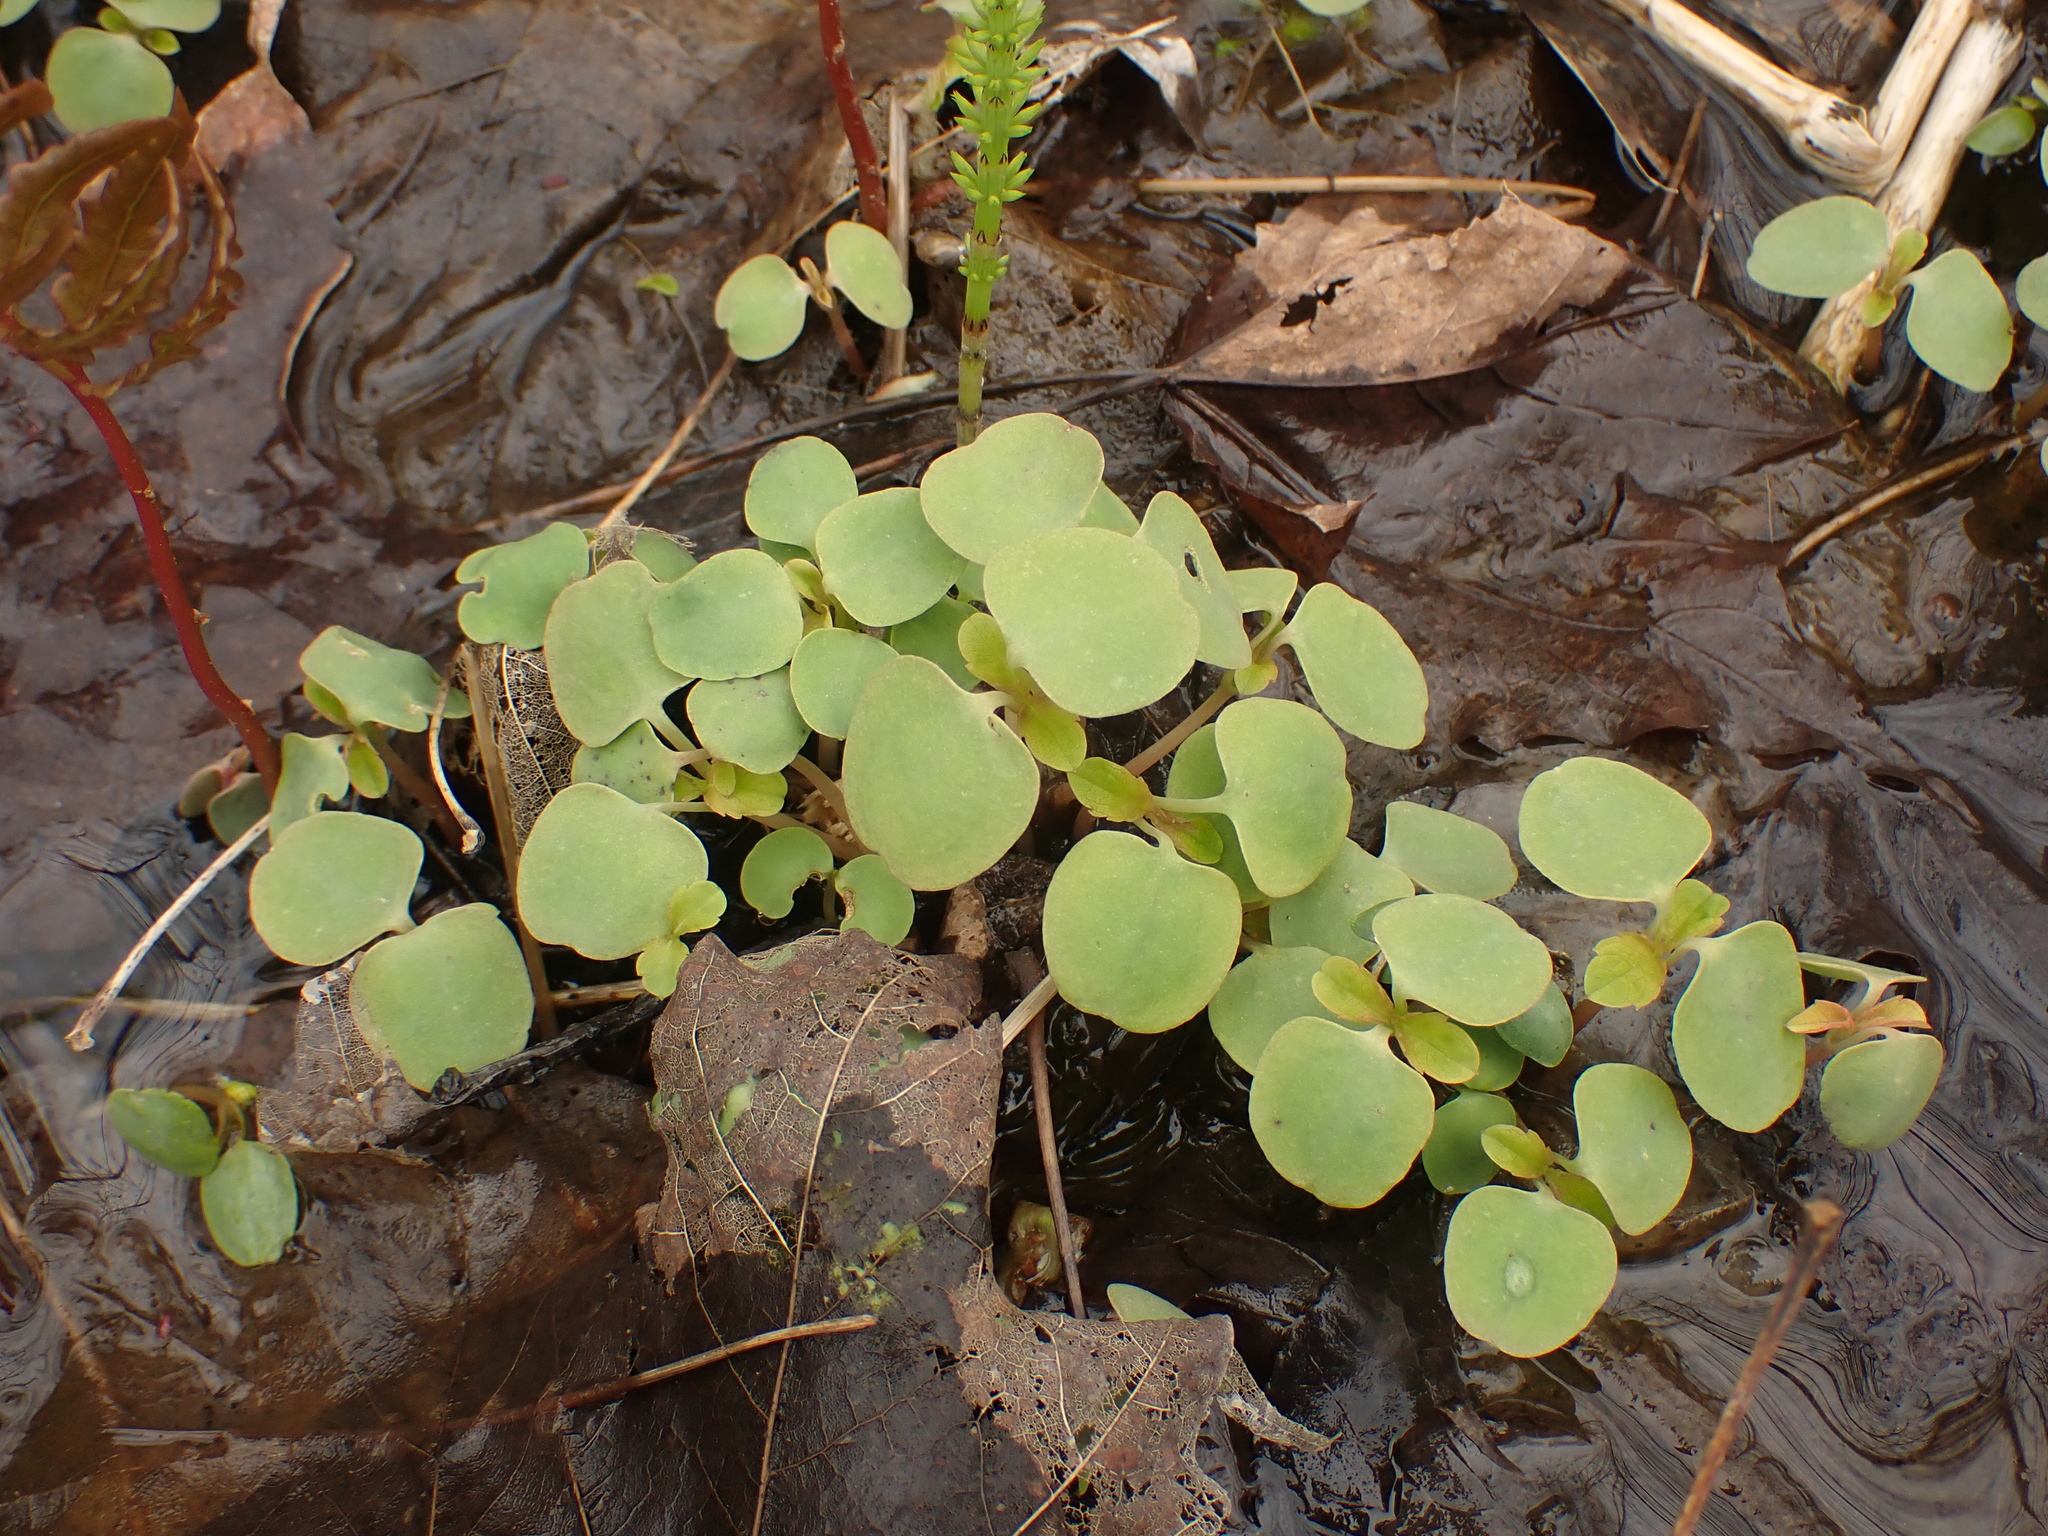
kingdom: Plantae
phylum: Tracheophyta
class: Magnoliopsida
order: Ericales
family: Balsaminaceae
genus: Impatiens
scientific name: Impatiens capensis
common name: Orange balsam
